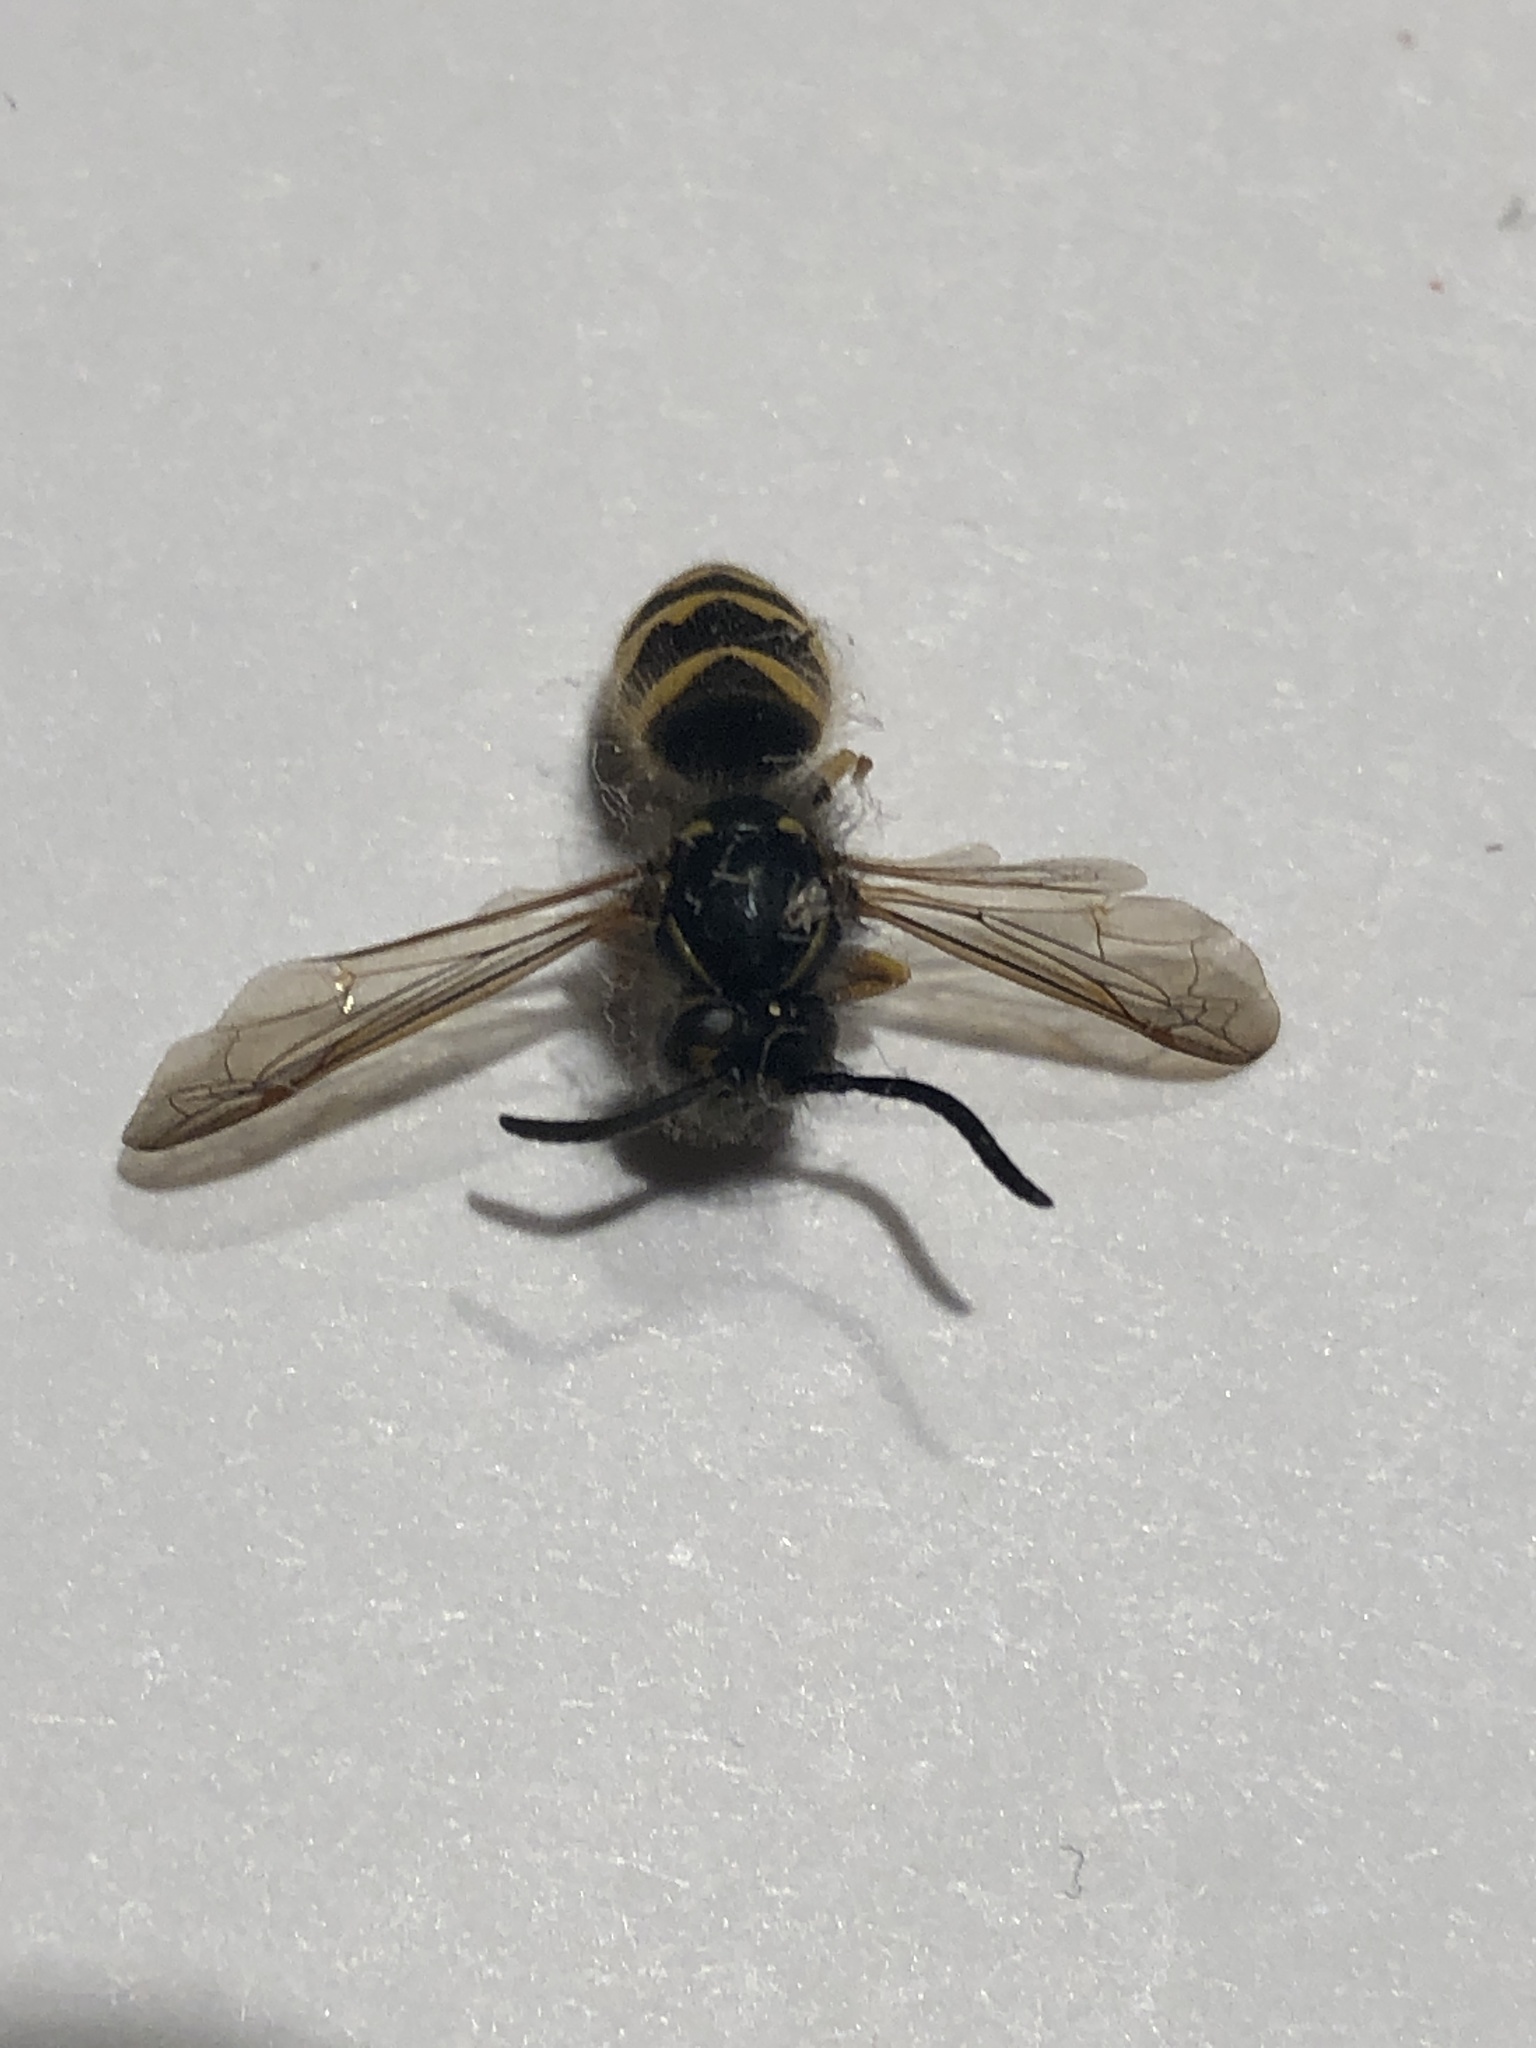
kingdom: Animalia
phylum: Arthropoda
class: Insecta
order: Hymenoptera
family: Vespidae
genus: Vespula
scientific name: Vespula alascensis
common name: Alaska yellowjacket
